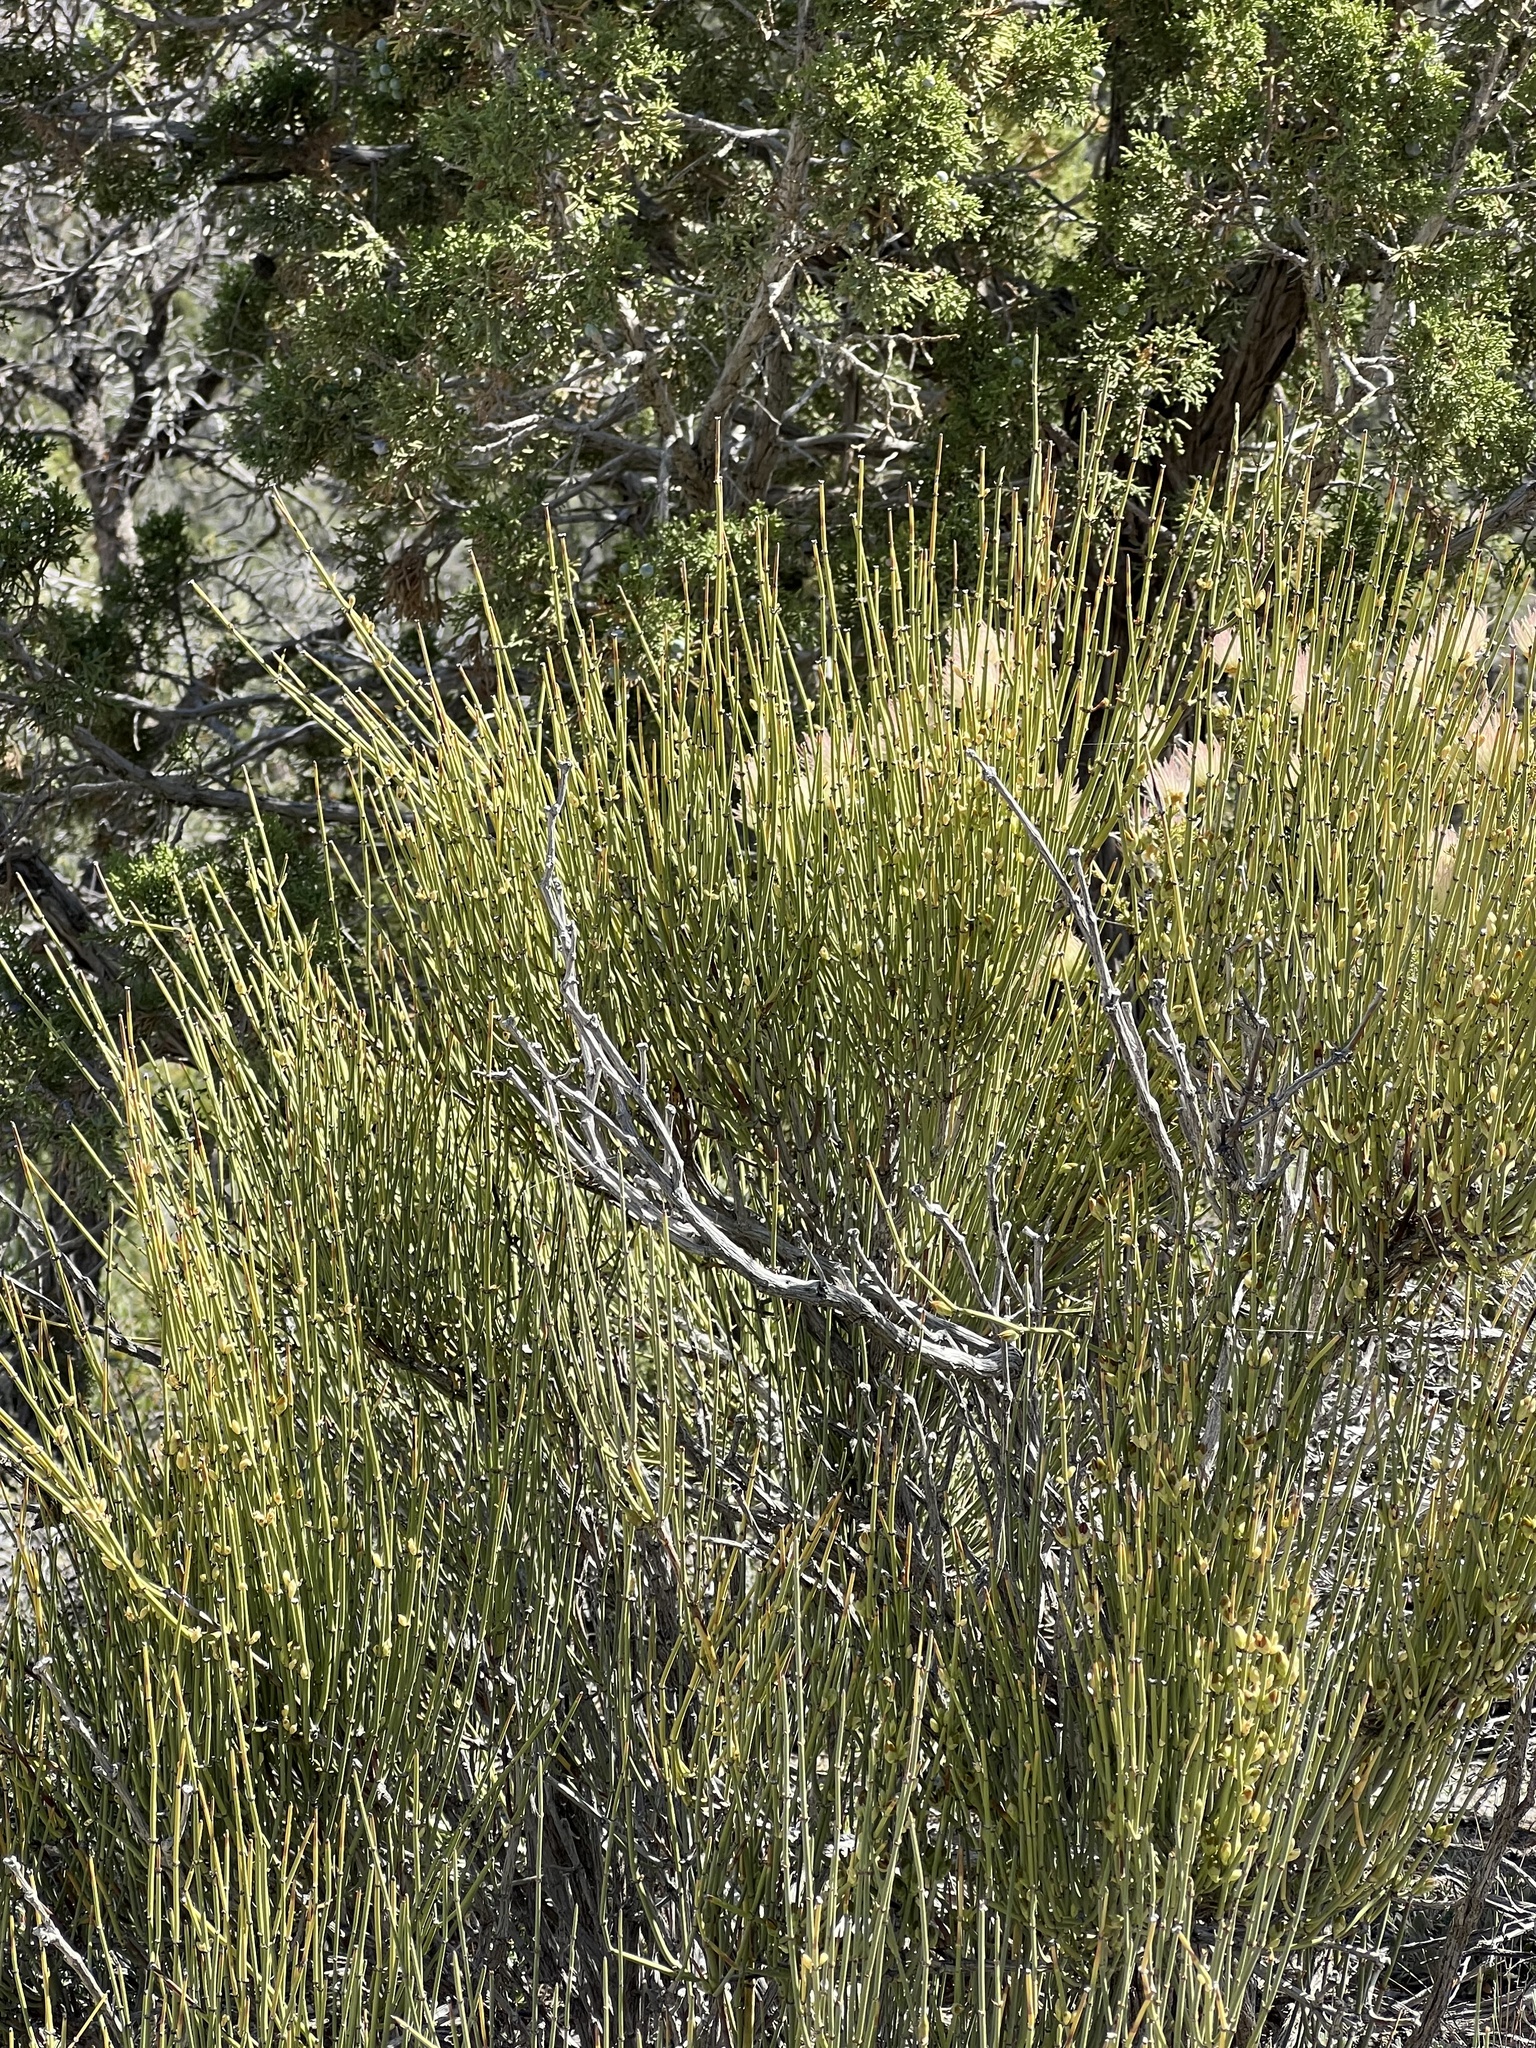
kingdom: Plantae
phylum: Tracheophyta
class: Gnetopsida
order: Ephedrales
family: Ephedraceae
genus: Ephedra
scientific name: Ephedra viridis
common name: Green ephedra
